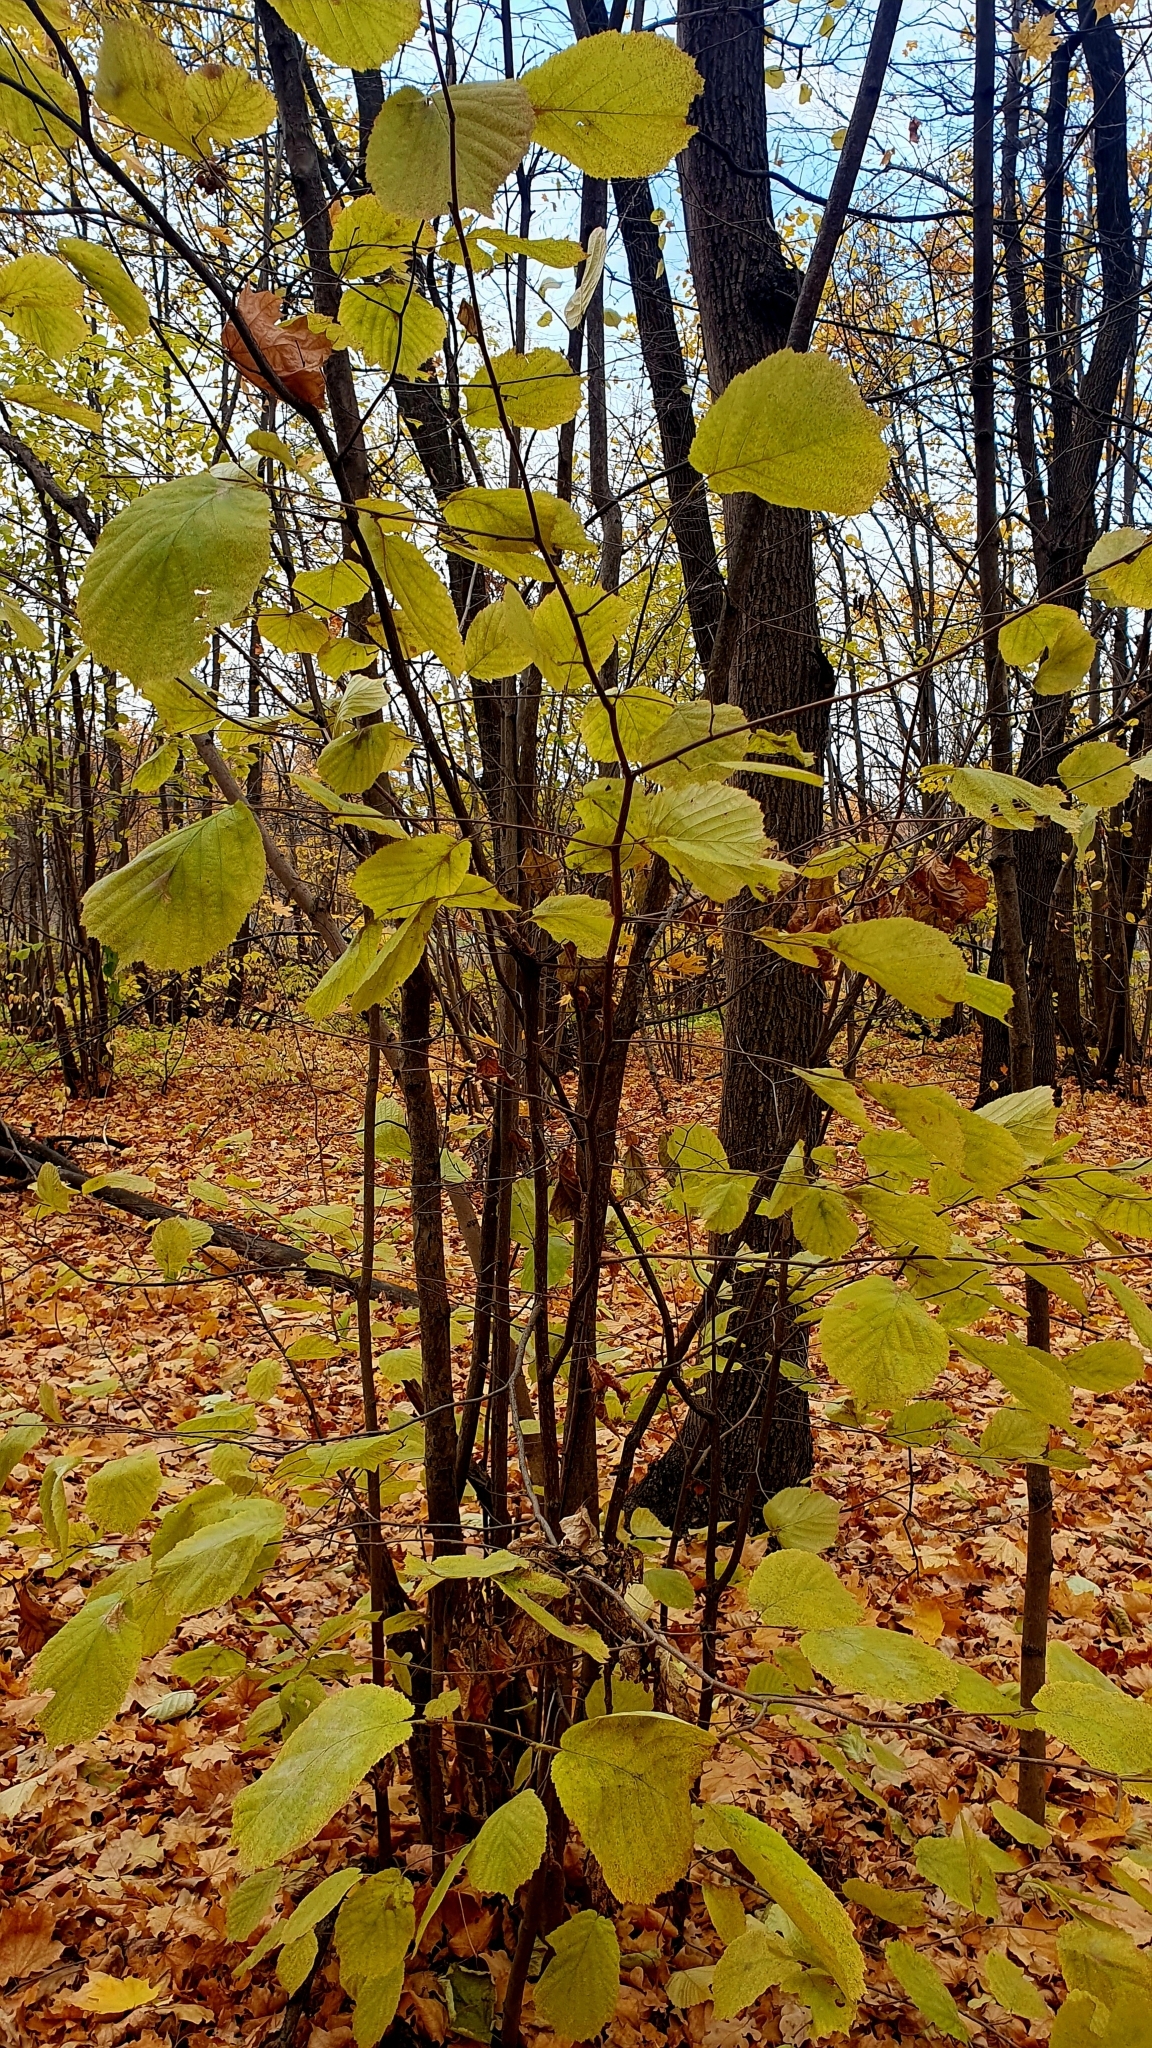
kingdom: Plantae
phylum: Tracheophyta
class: Magnoliopsida
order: Fagales
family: Betulaceae
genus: Corylus
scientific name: Corylus avellana
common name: European hazel
